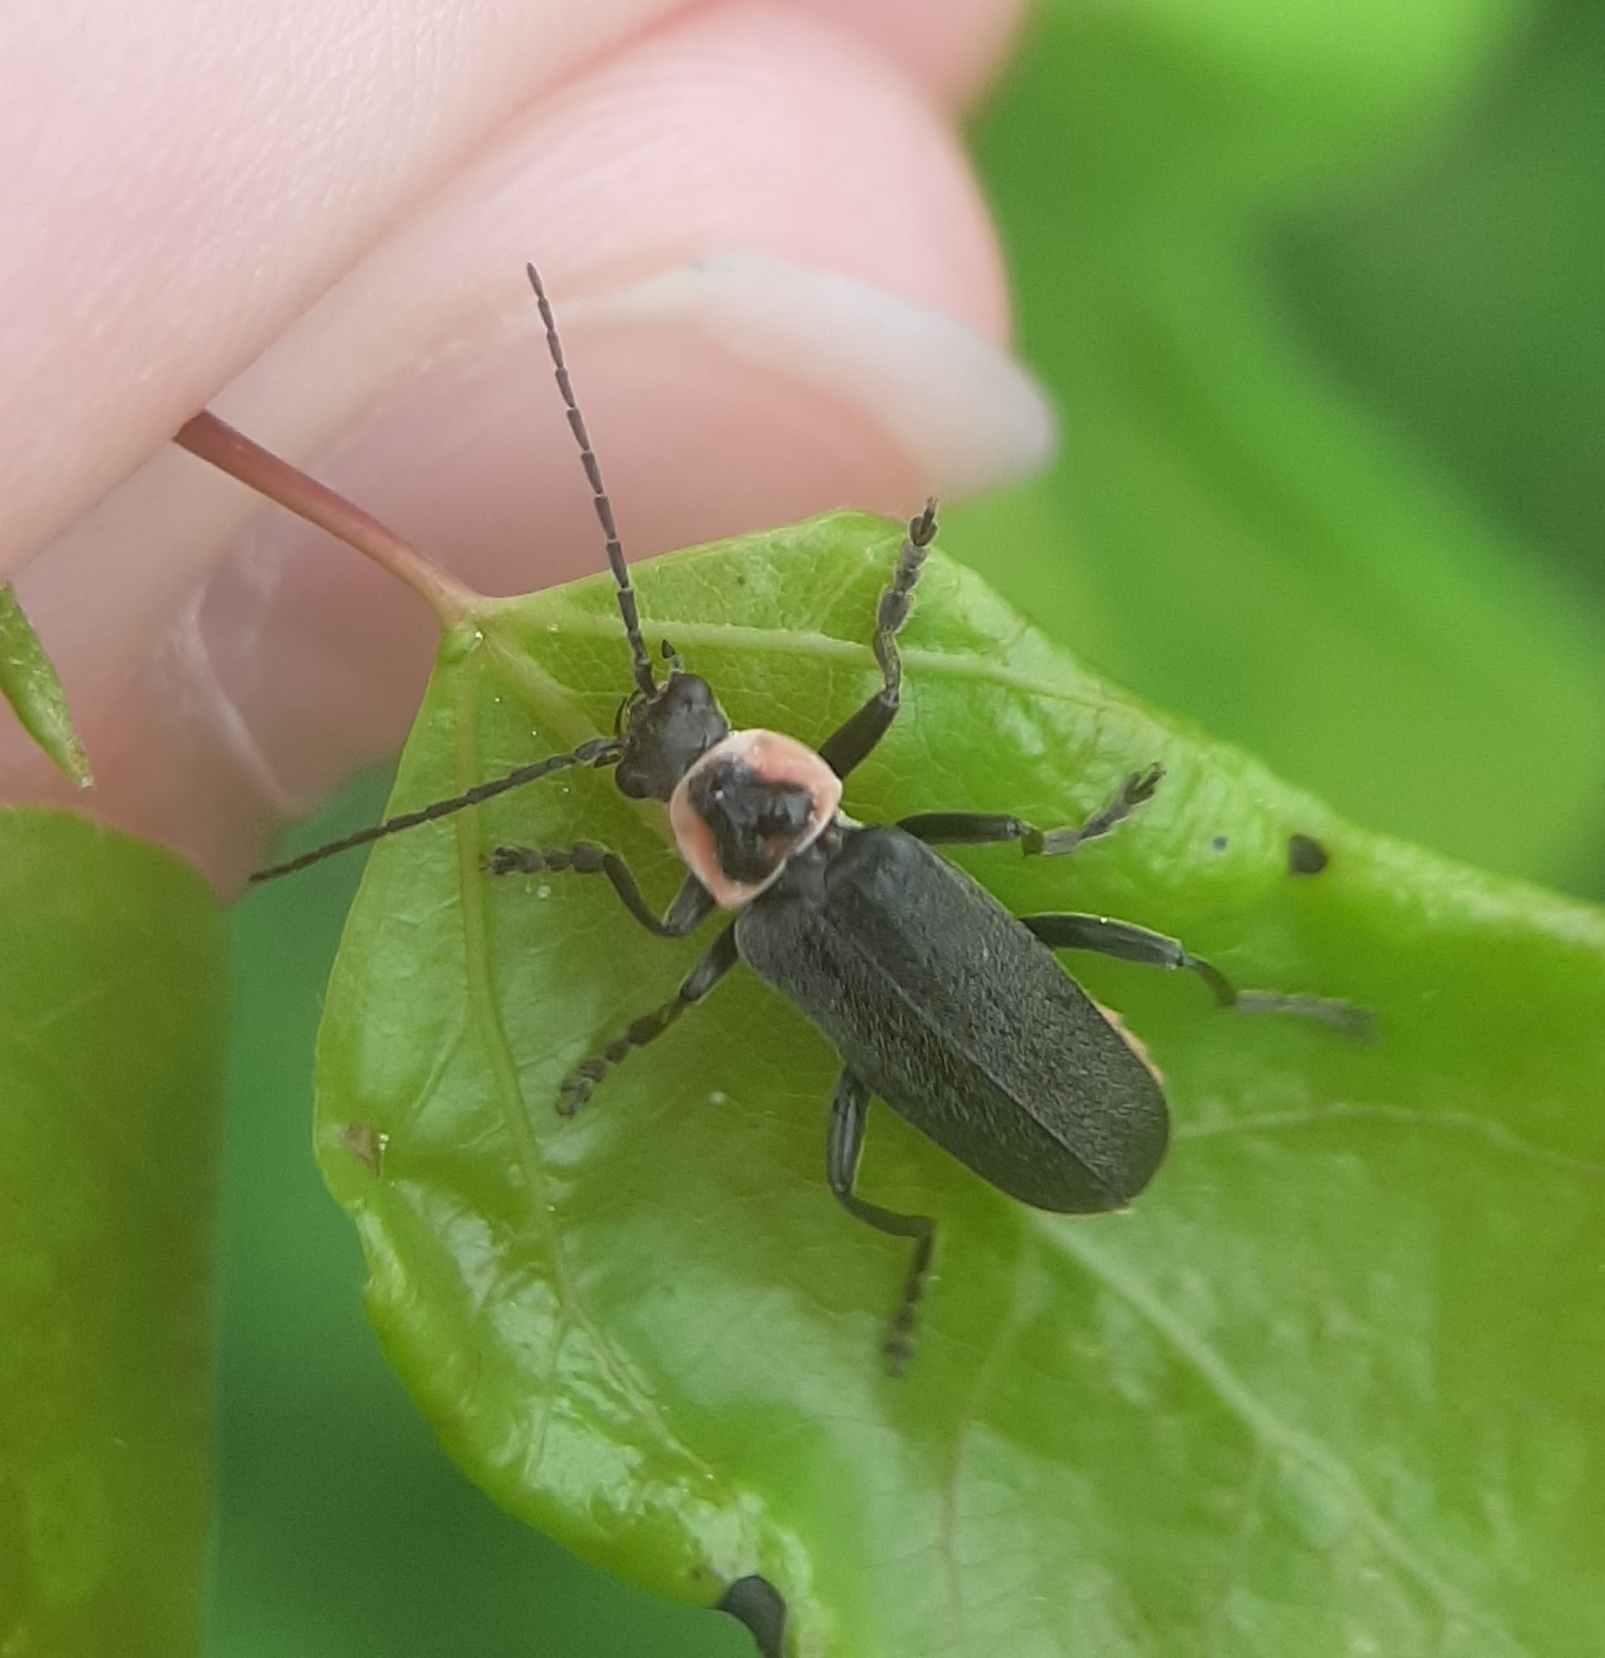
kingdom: Animalia
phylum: Arthropoda
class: Insecta
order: Coleoptera
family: Cantharidae
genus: Atalantycha
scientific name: Atalantycha neglecta
